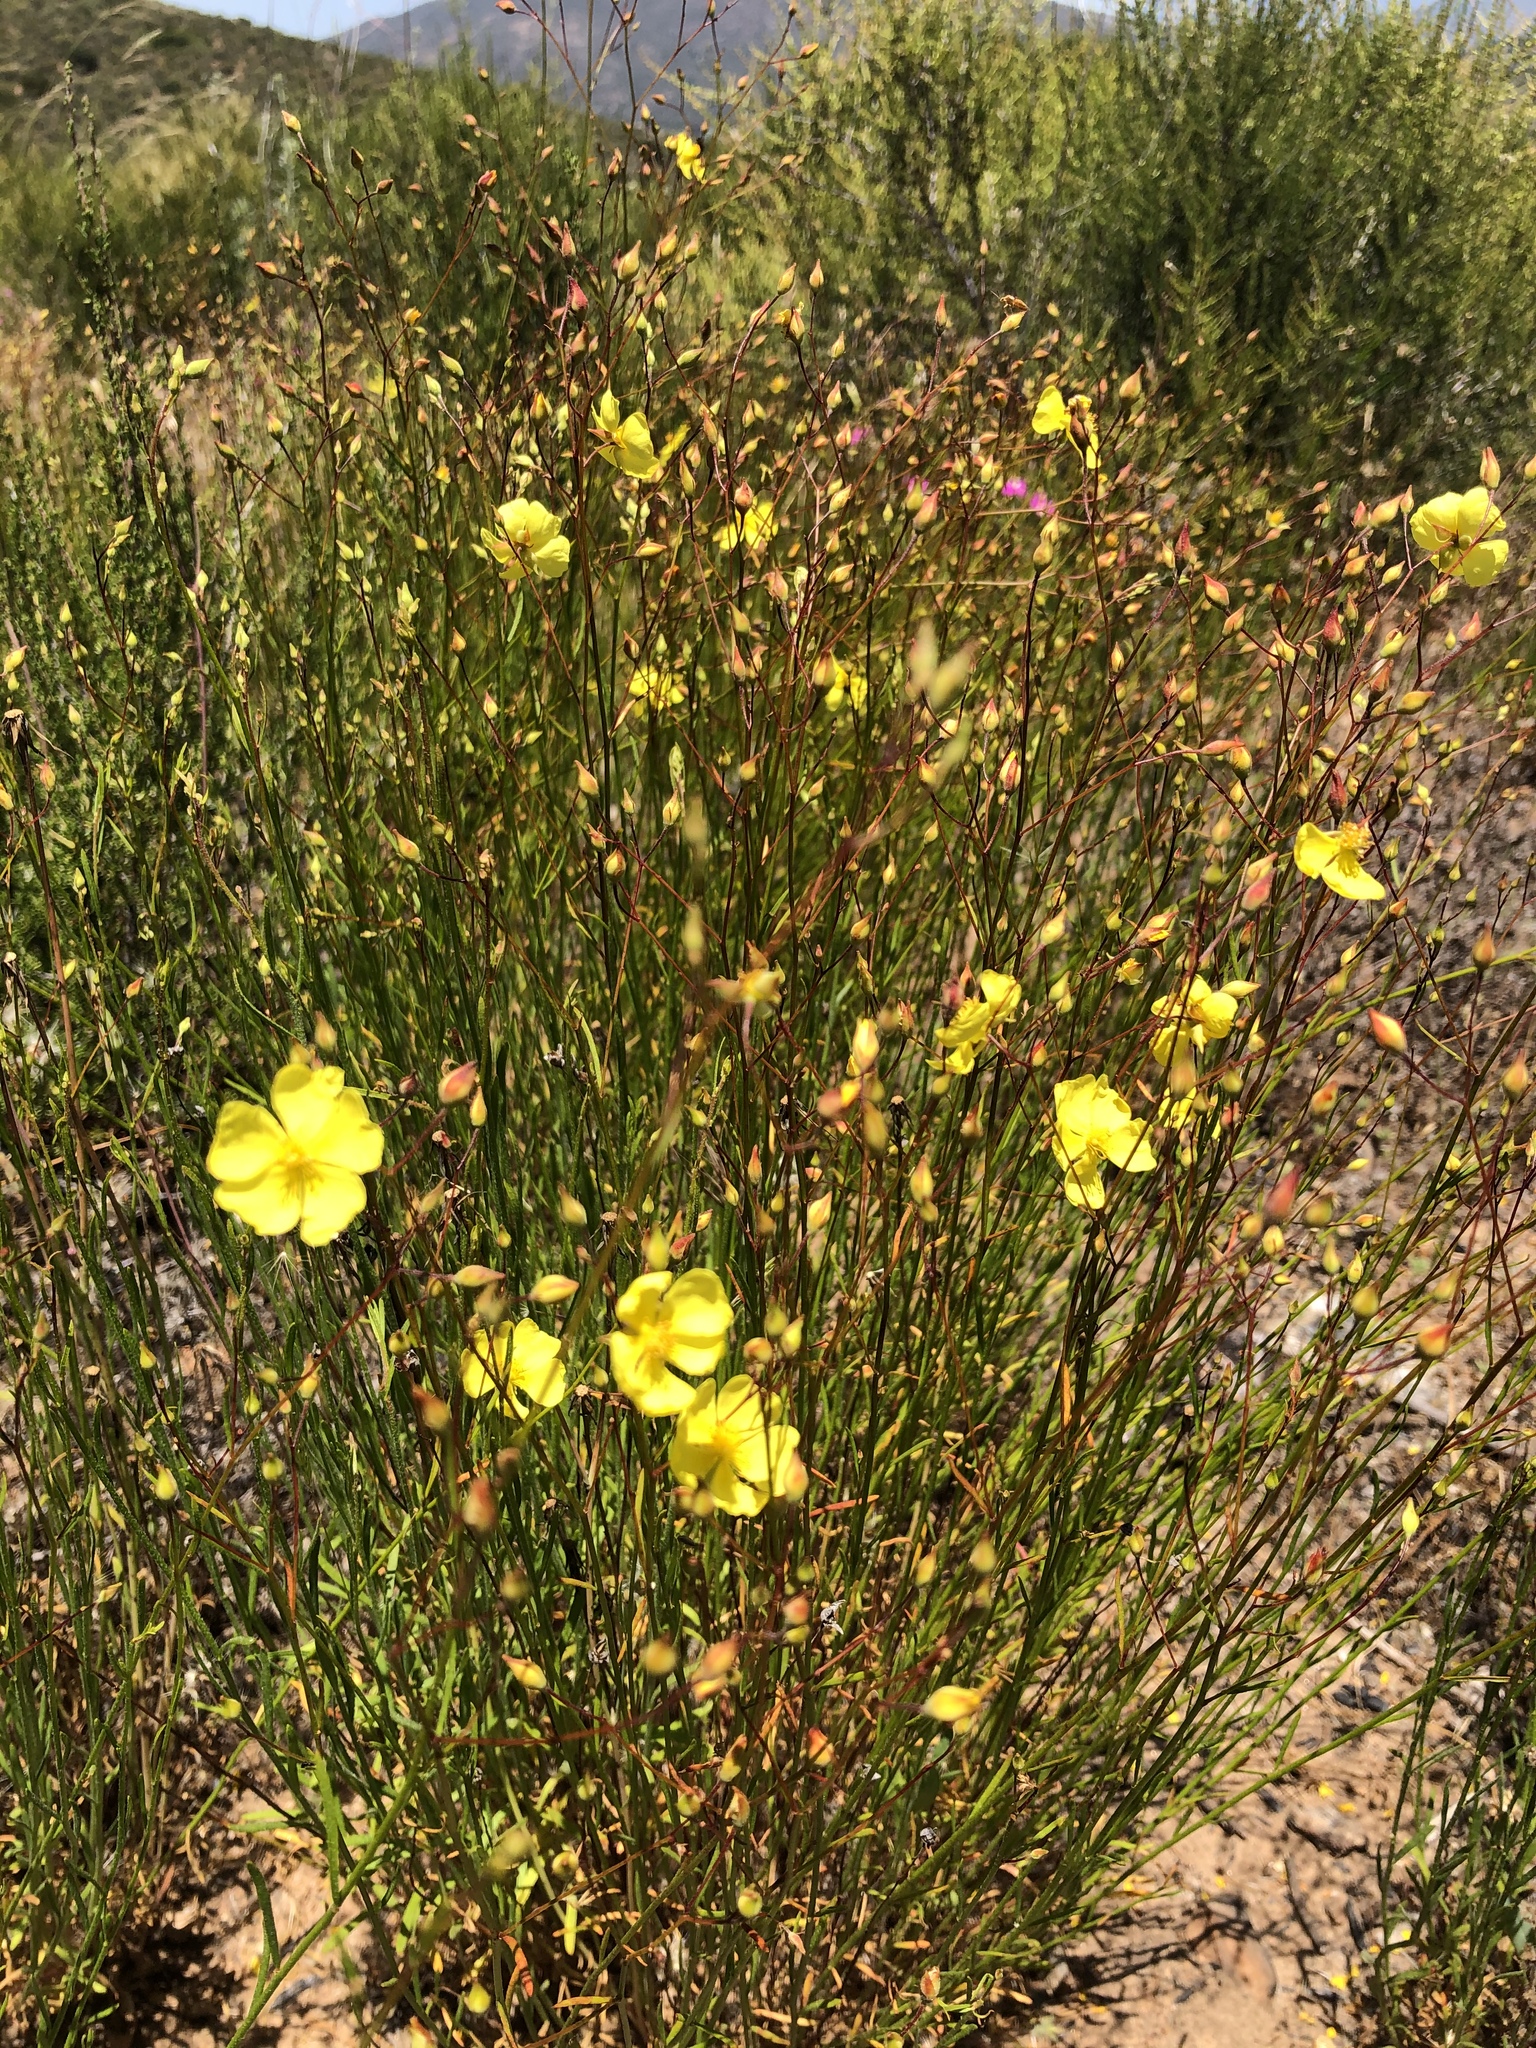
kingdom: Plantae
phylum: Tracheophyta
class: Magnoliopsida
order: Malvales
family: Cistaceae
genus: Crocanthemum
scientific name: Crocanthemum scoparium
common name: Broom-rose
